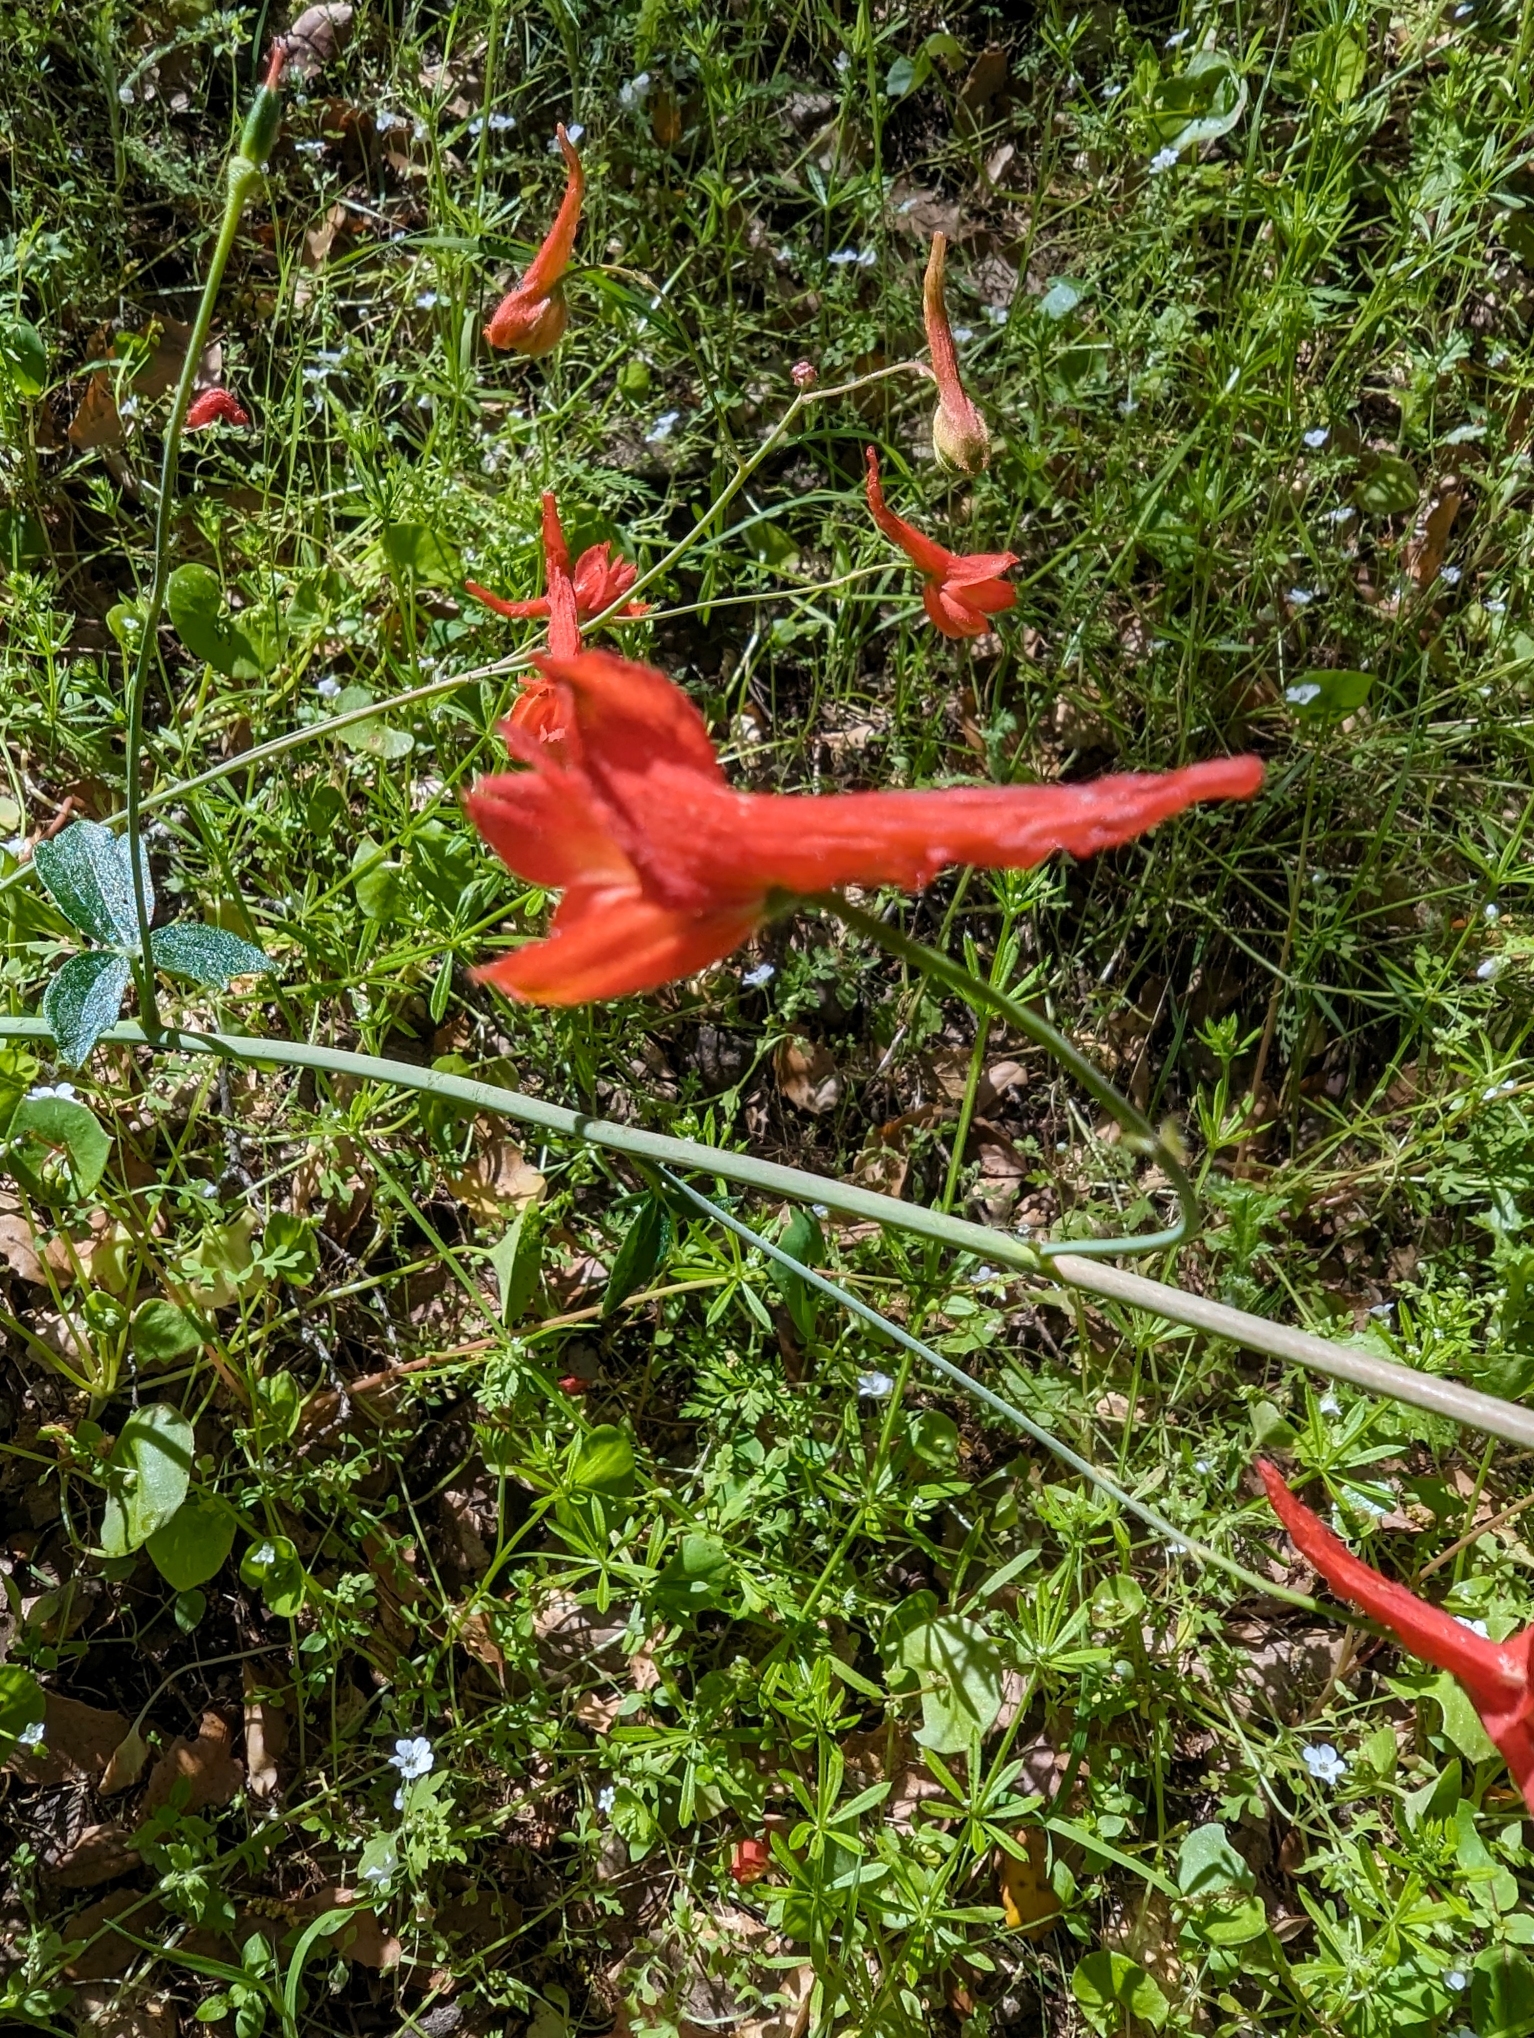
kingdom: Plantae
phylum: Tracheophyta
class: Magnoliopsida
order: Ranunculales
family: Ranunculaceae
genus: Delphinium
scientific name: Delphinium nudicaule
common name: Red larkspur
